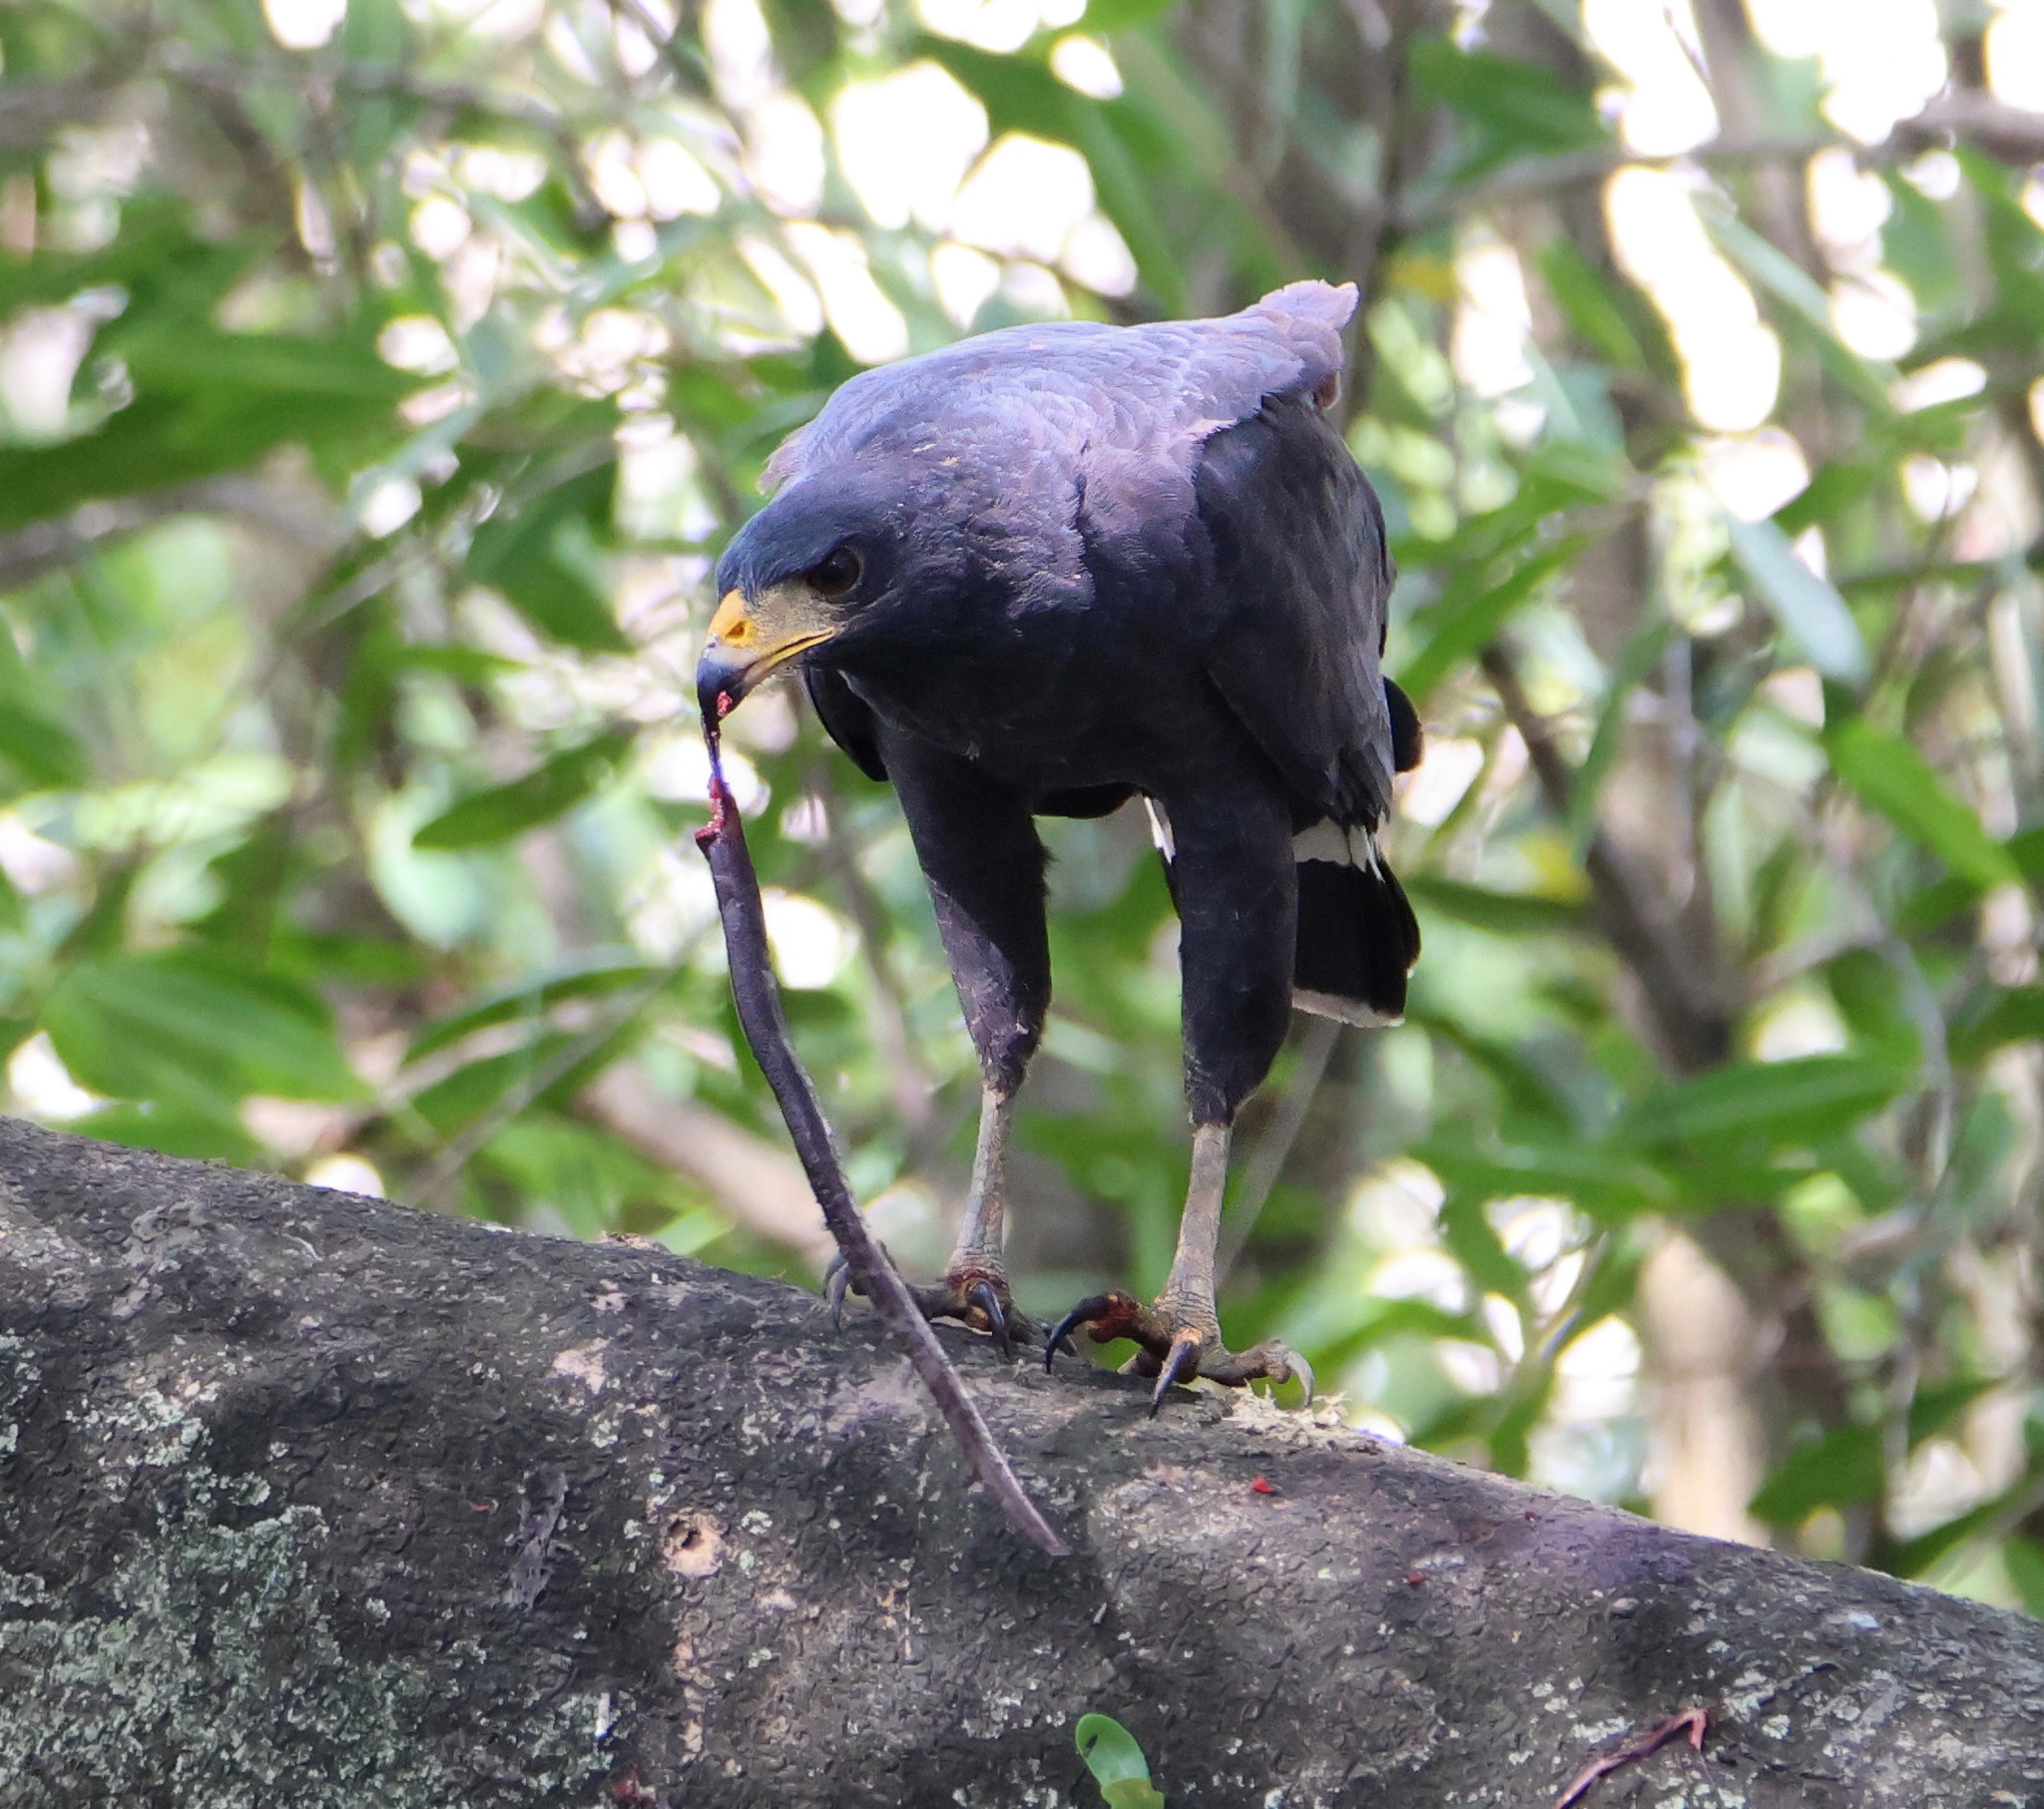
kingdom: Animalia
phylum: Chordata
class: Aves
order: Accipitriformes
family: Accipitridae
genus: Buteogallus
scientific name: Buteogallus anthracinus
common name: Common black hawk
